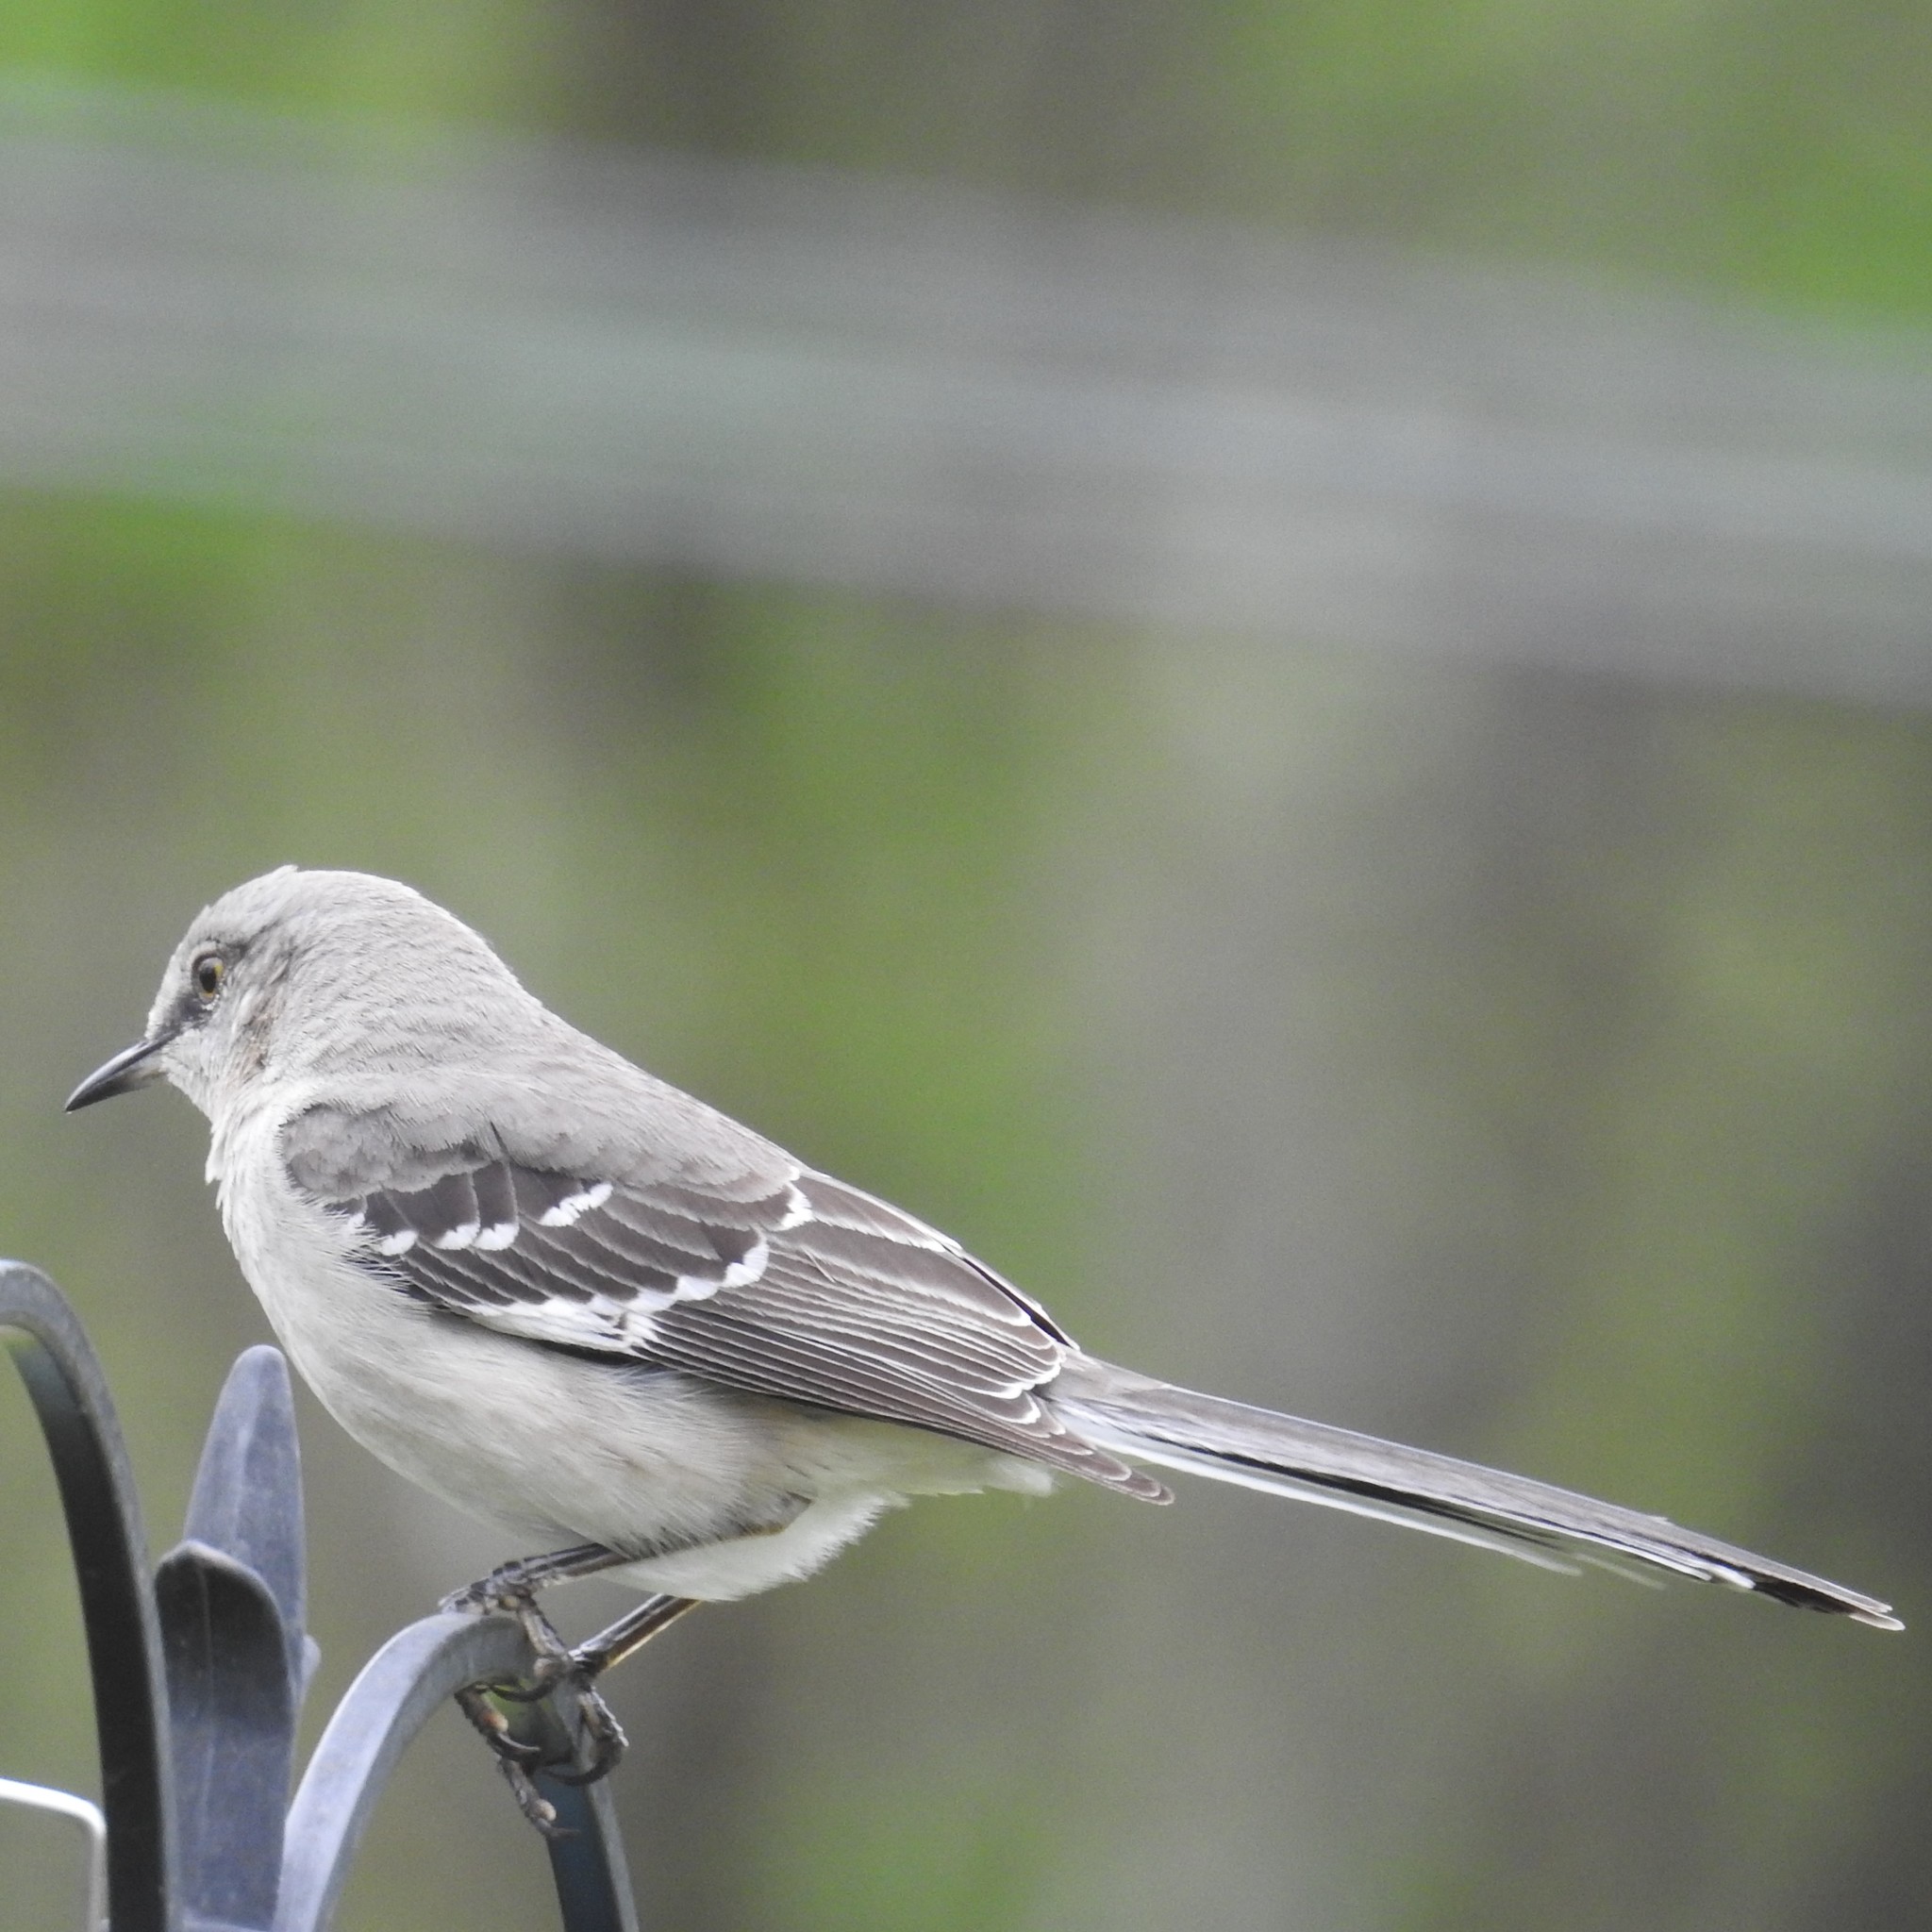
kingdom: Animalia
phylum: Chordata
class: Aves
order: Passeriformes
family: Mimidae
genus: Mimus
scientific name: Mimus polyglottos
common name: Northern mockingbird
